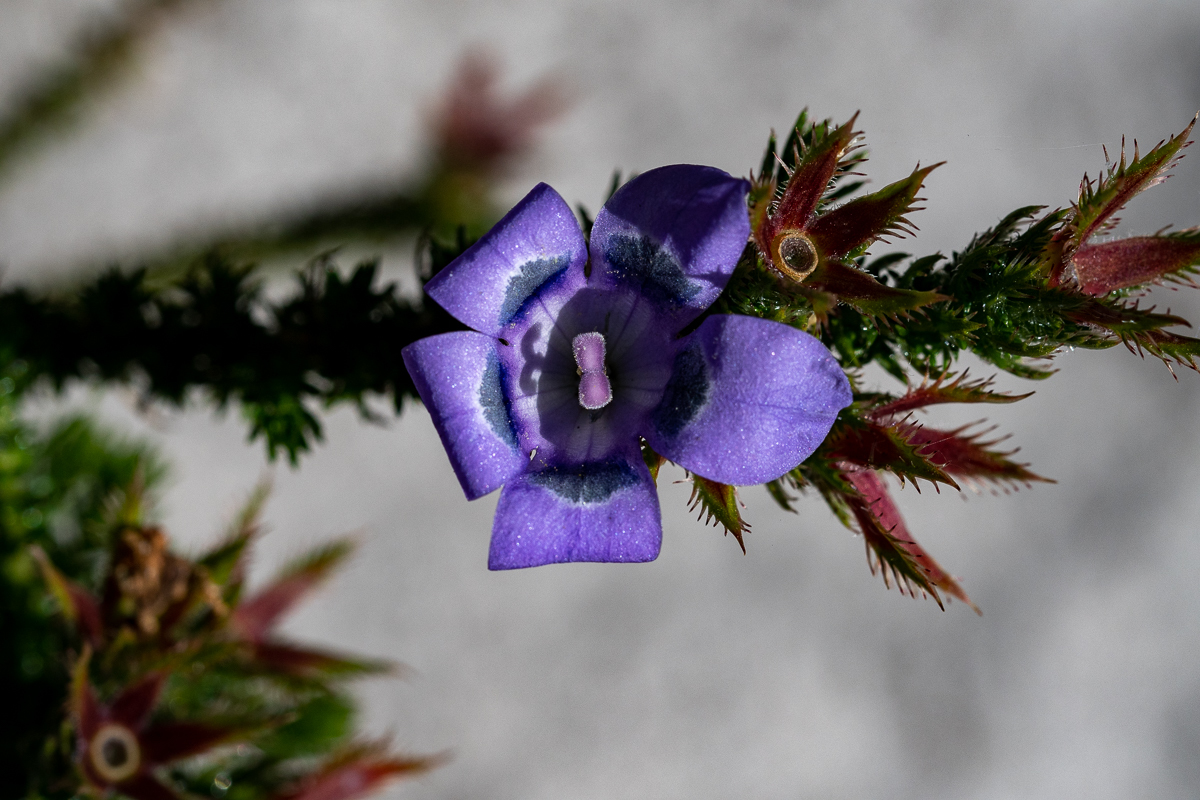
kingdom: Plantae
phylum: Tracheophyta
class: Magnoliopsida
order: Asterales
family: Campanulaceae
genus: Roella
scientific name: Roella ciliata
